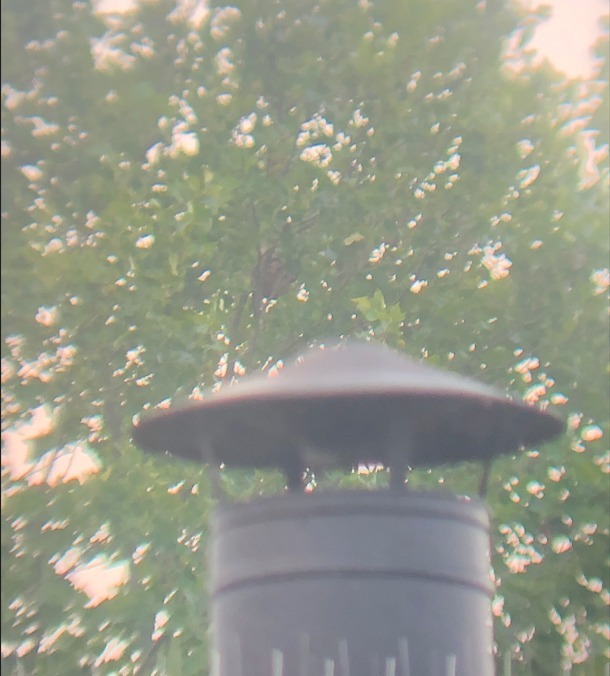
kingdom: Animalia
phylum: Arthropoda
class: Insecta
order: Hymenoptera
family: Vespidae
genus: Vespa
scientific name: Vespa velutina
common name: Asian hornet
